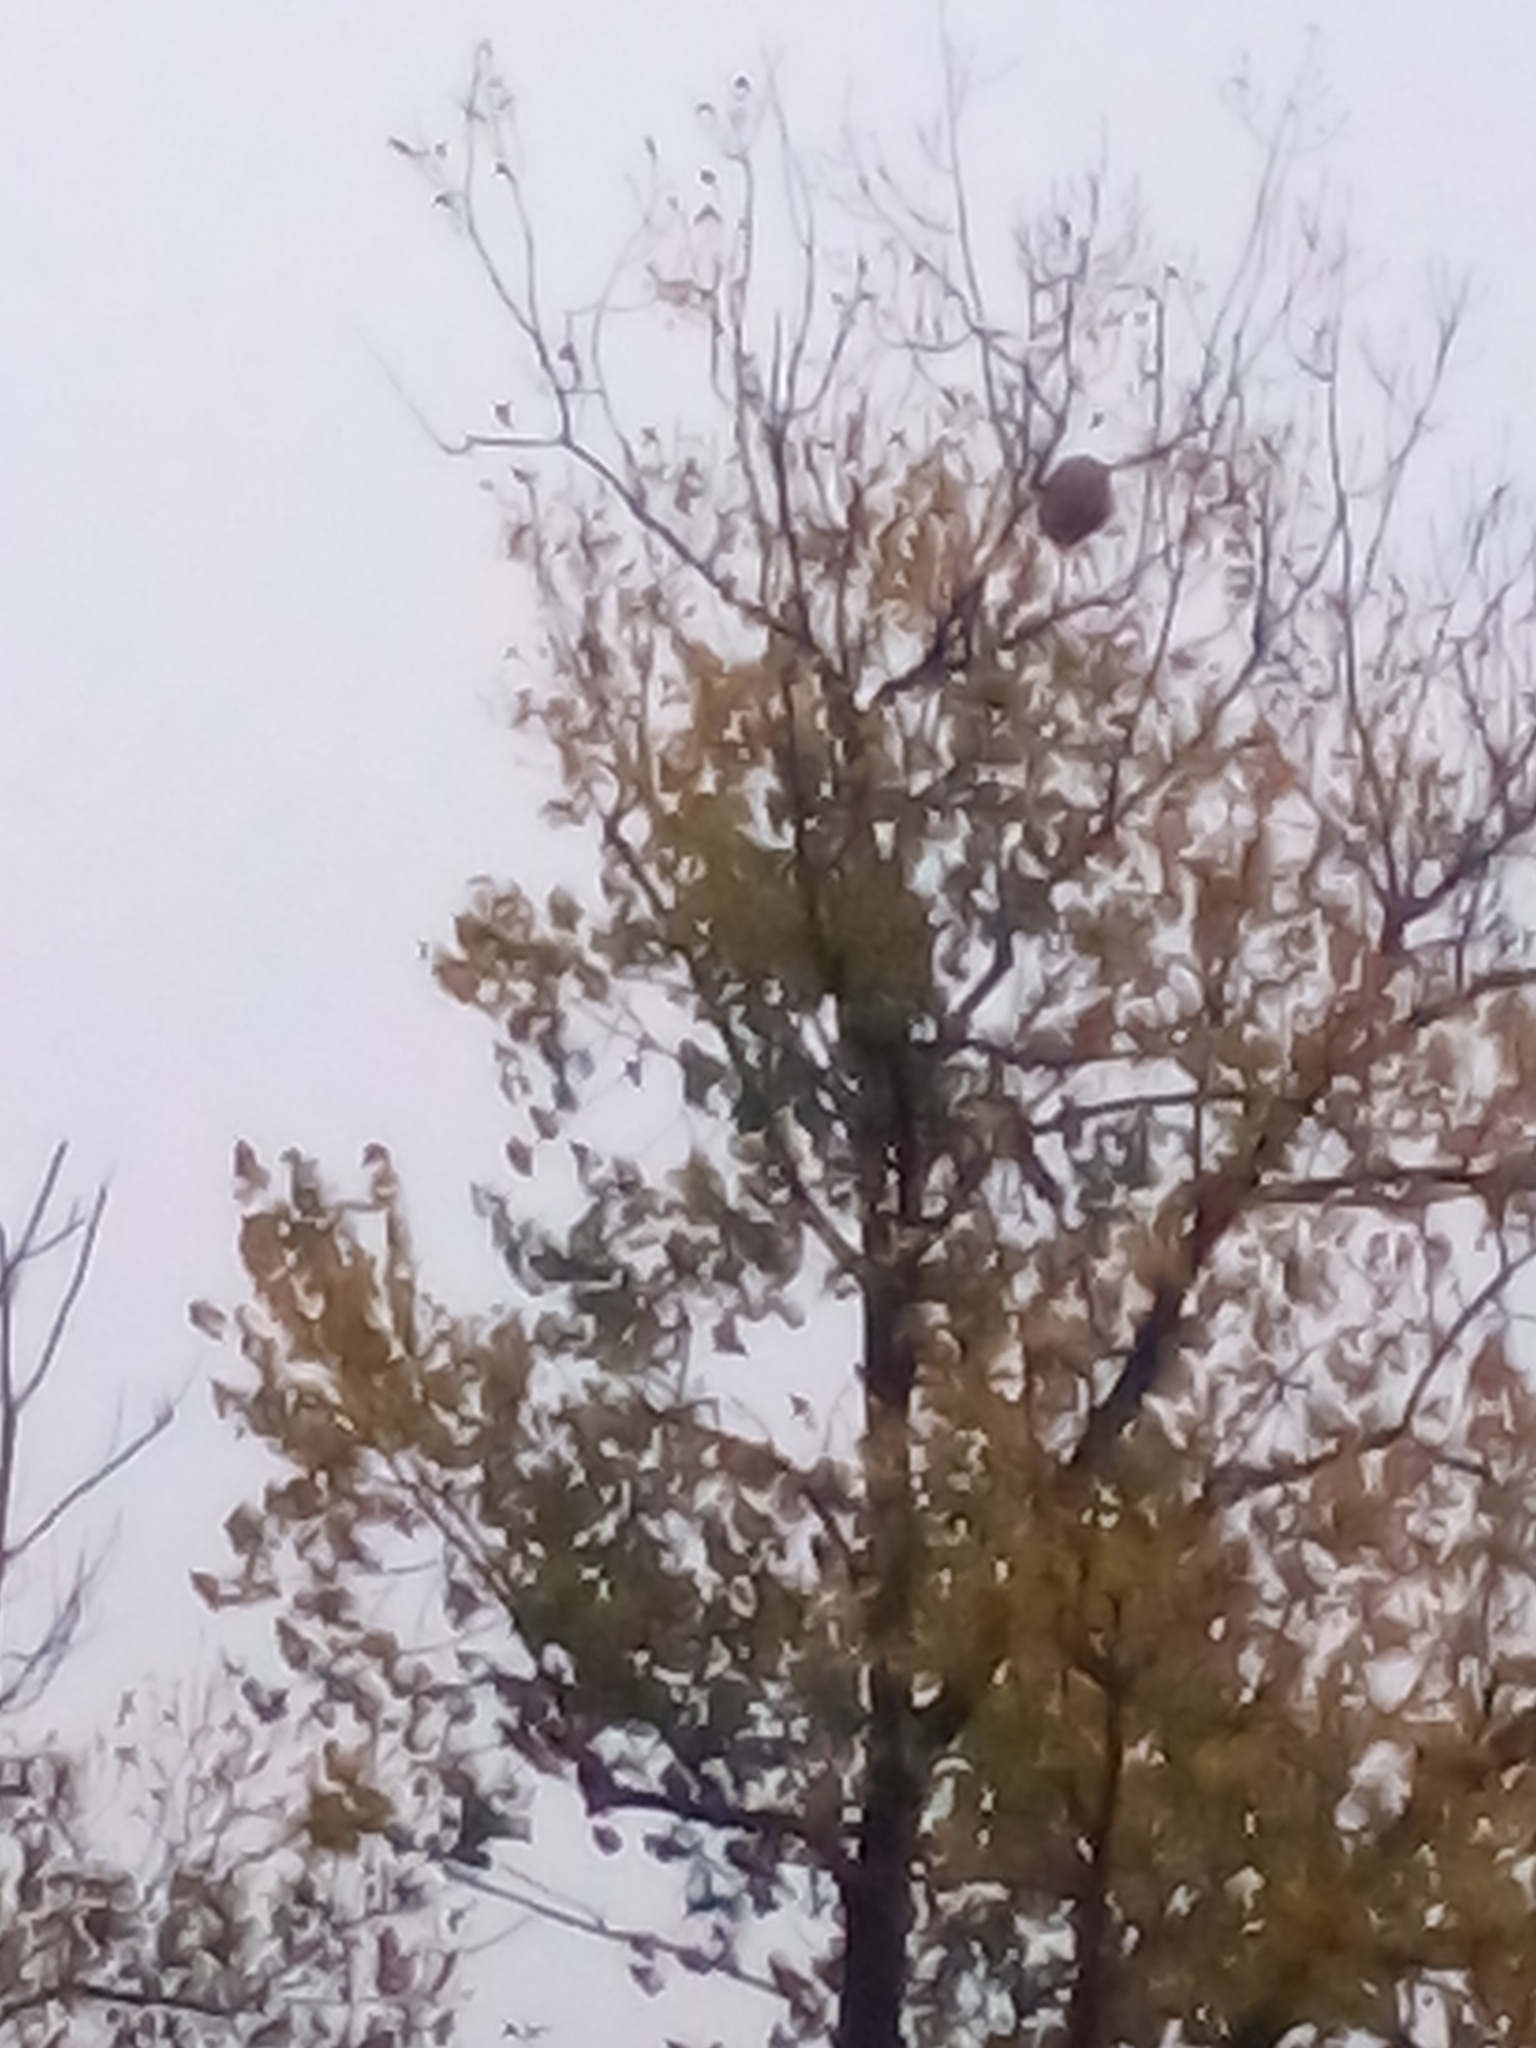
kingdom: Animalia
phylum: Arthropoda
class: Insecta
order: Hymenoptera
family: Vespidae
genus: Vespa
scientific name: Vespa velutina
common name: Asian hornet
